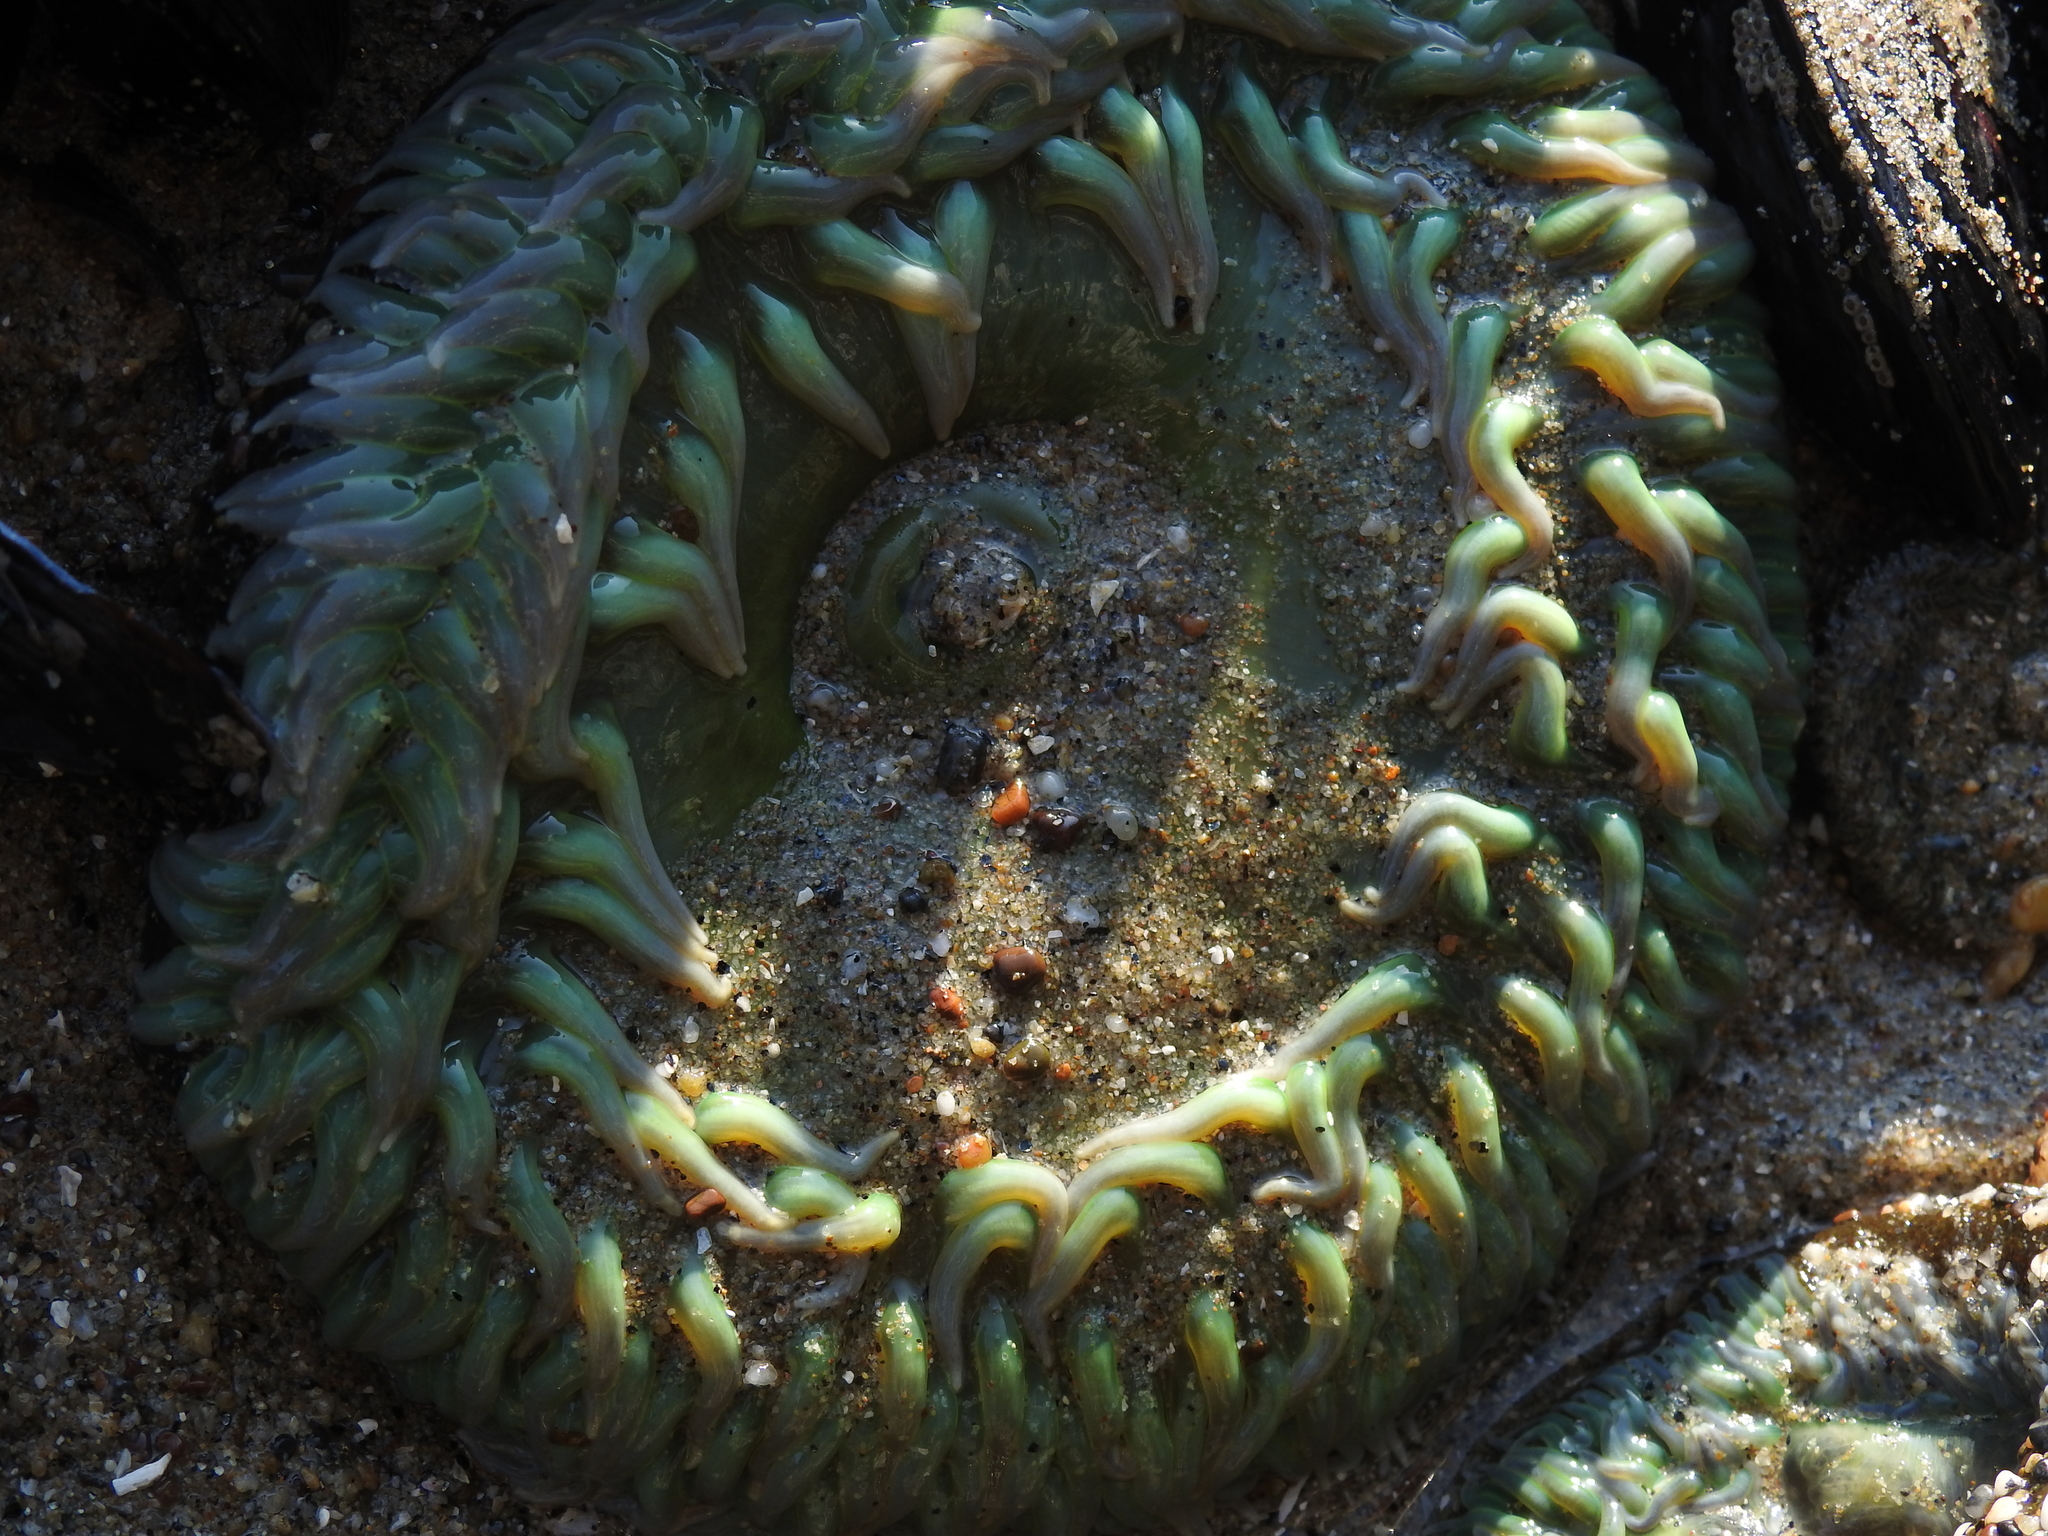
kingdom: Animalia
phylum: Cnidaria
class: Anthozoa
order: Actiniaria
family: Actiniidae
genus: Anthopleura
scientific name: Anthopleura xanthogrammica
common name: Giant green anemone
